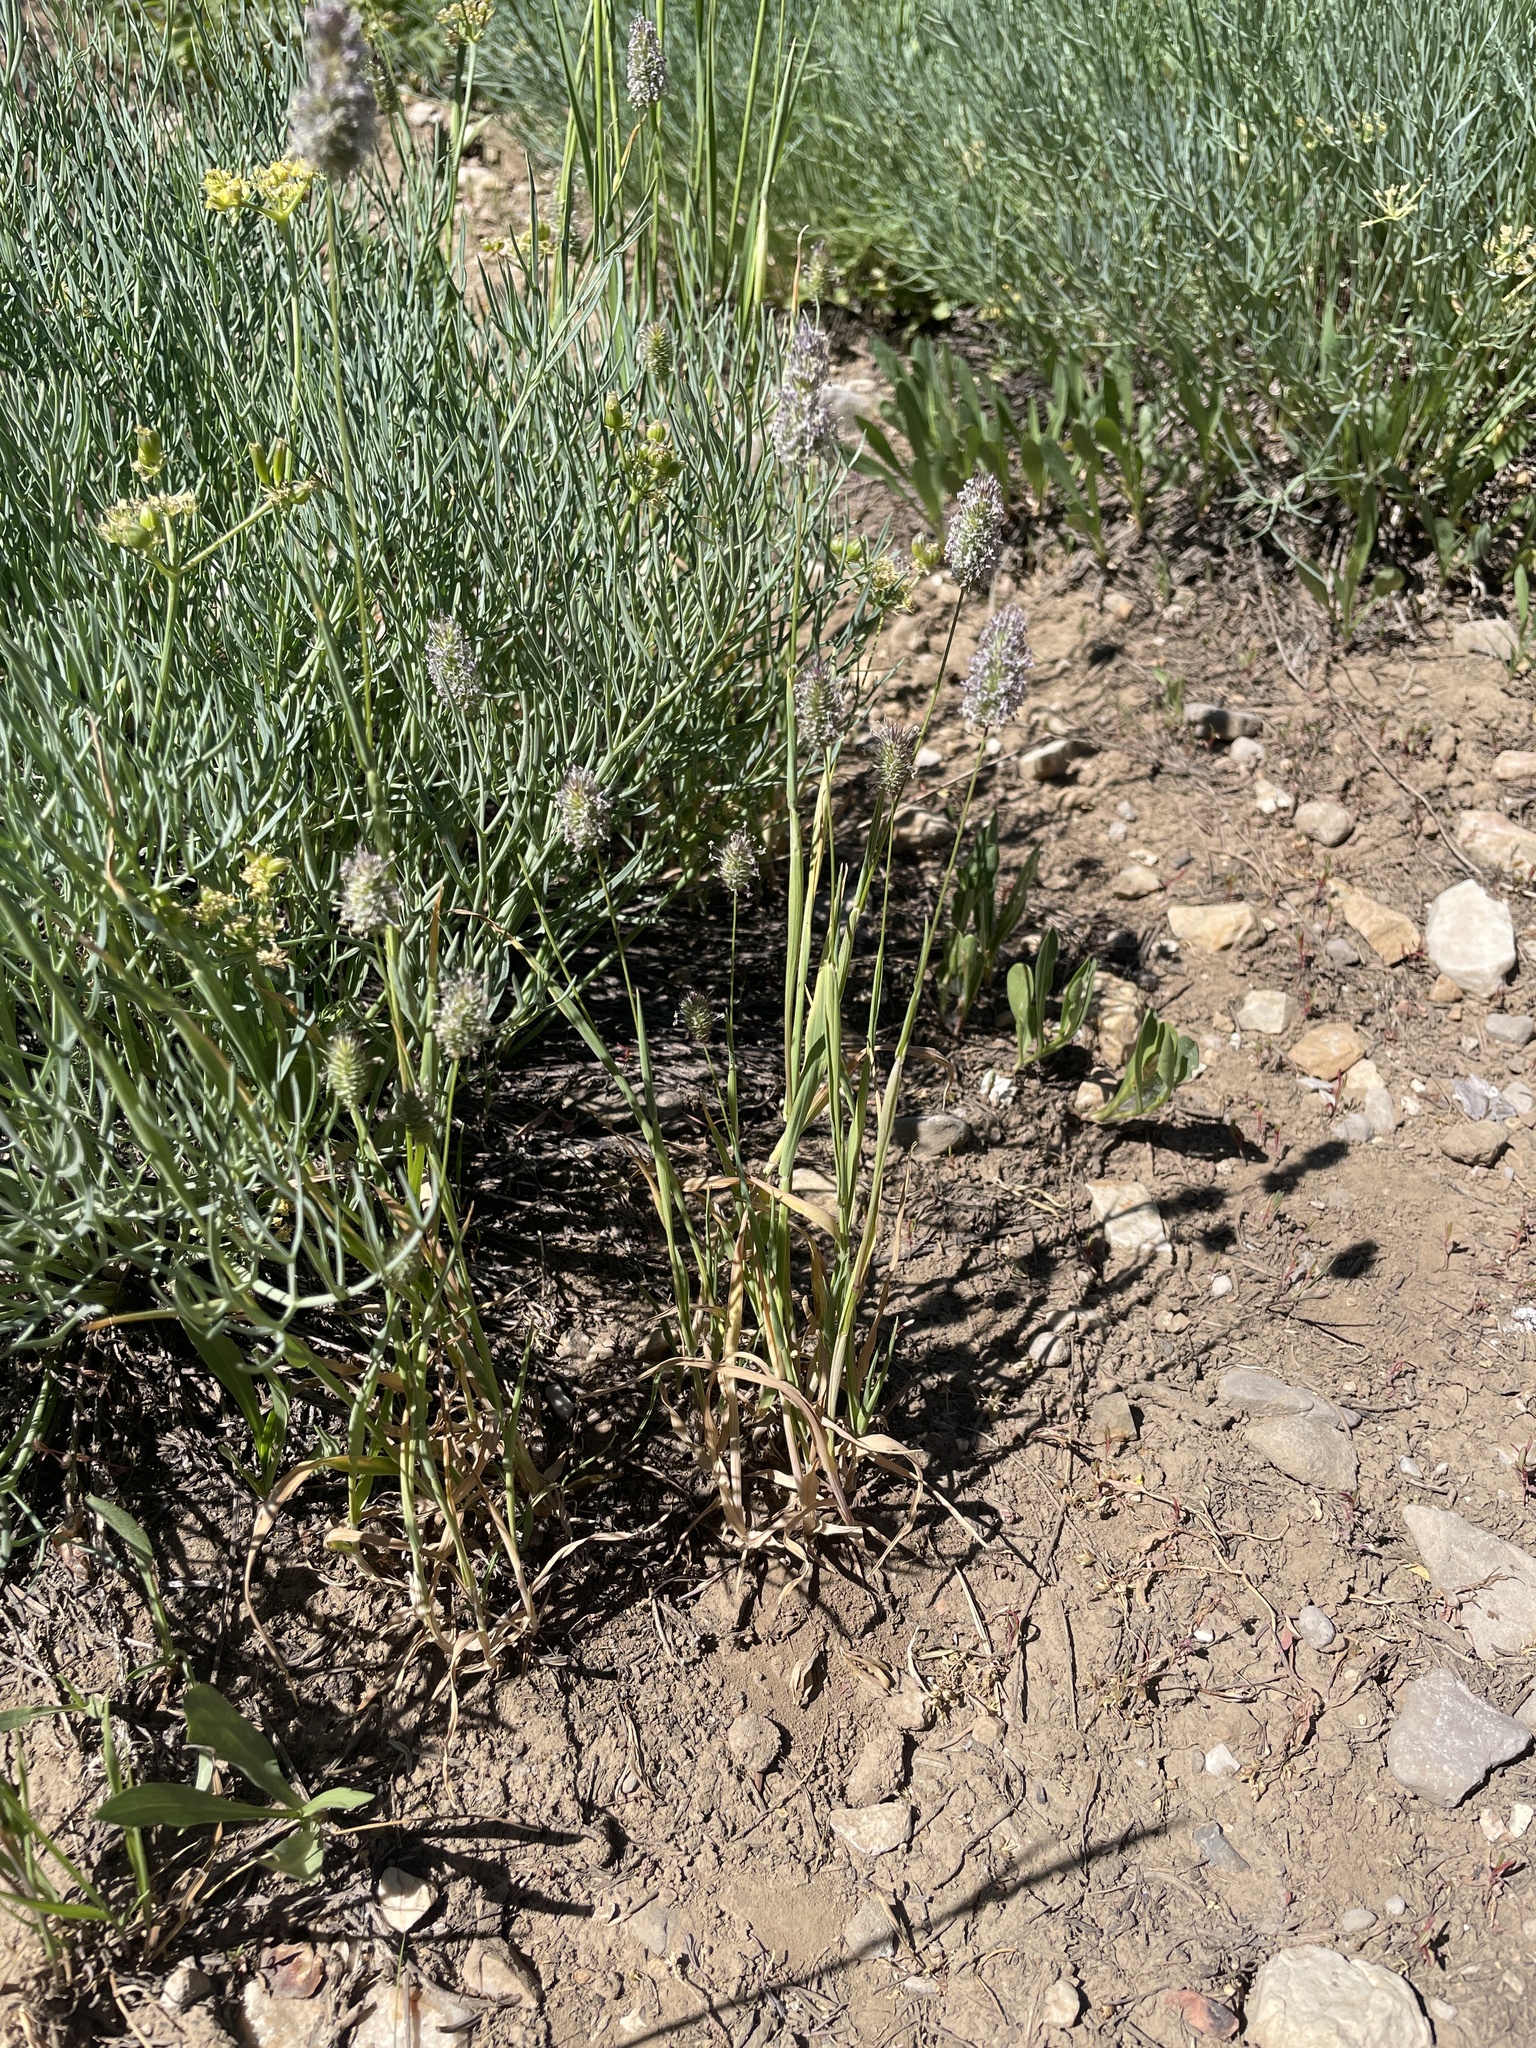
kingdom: Plantae
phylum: Tracheophyta
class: Liliopsida
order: Poales
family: Poaceae
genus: Phleum
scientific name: Phleum alpinum
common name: Alpine cat's-tail
